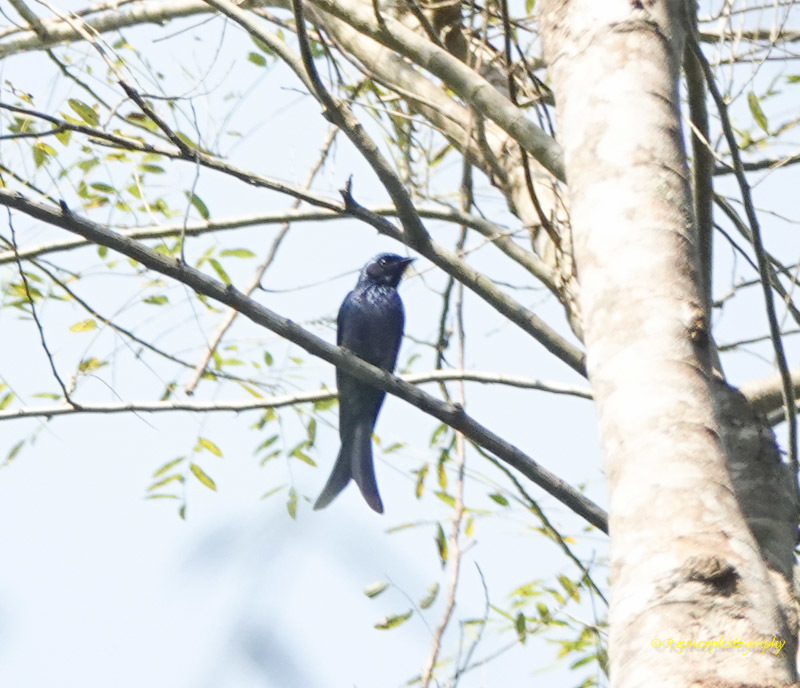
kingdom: Animalia
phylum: Chordata
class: Aves
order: Passeriformes
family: Dicruridae
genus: Dicrurus
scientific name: Dicrurus aeneus
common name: Bronzed drongo
